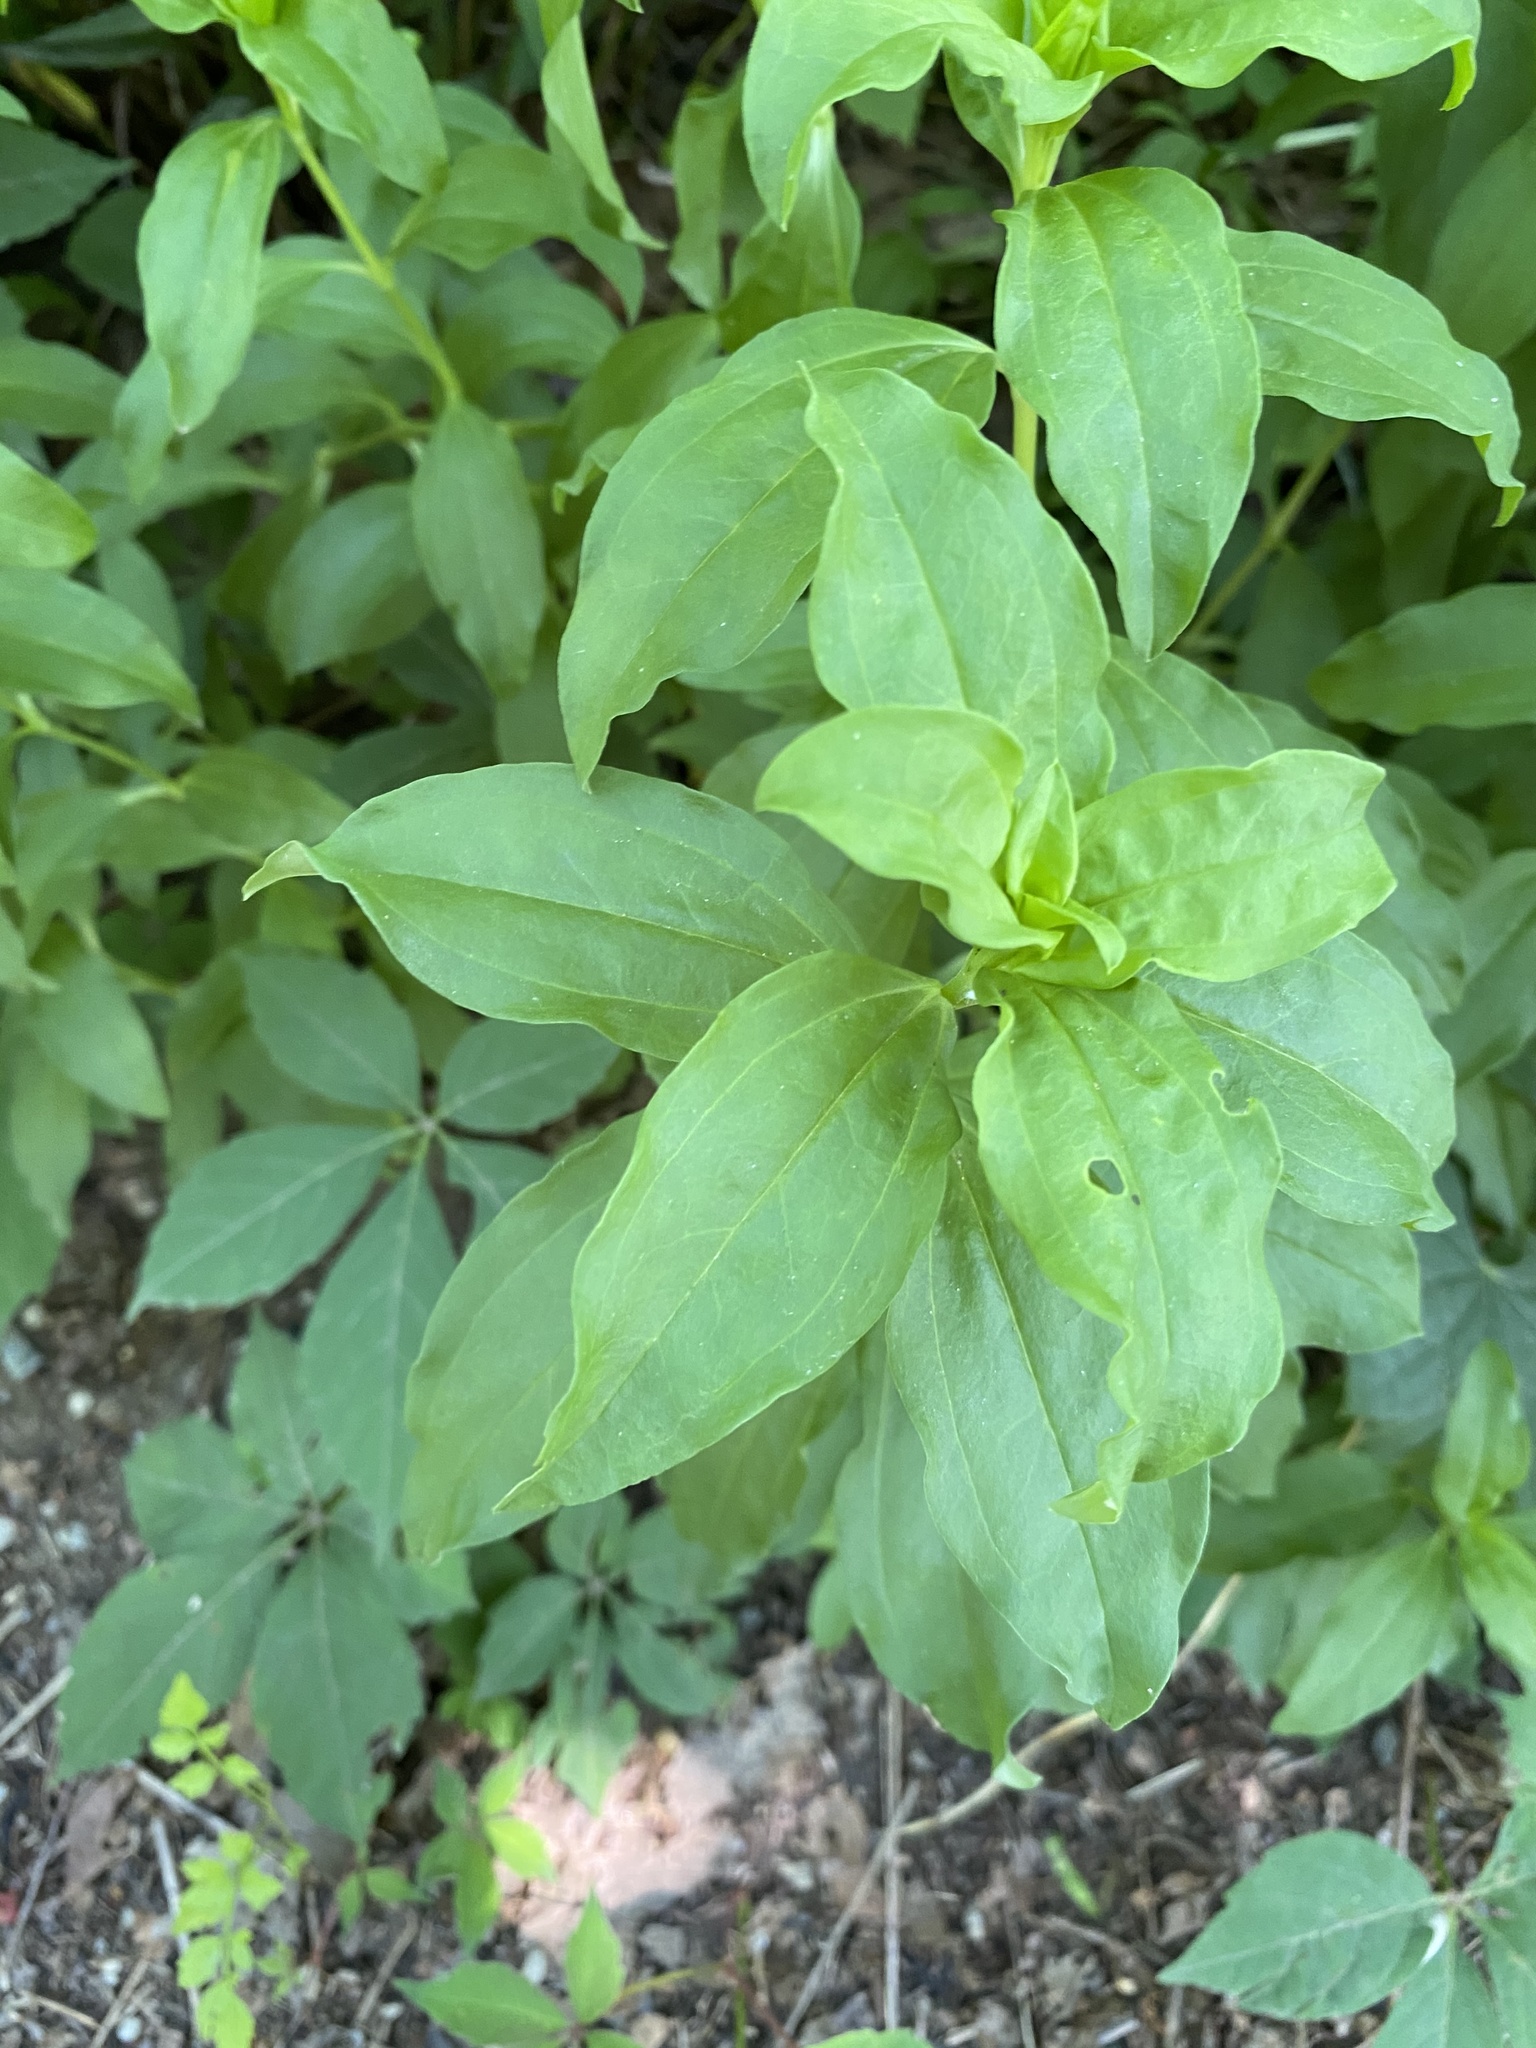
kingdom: Plantae
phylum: Tracheophyta
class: Magnoliopsida
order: Caryophyllales
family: Caryophyllaceae
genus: Saponaria
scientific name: Saponaria officinalis
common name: Soapwort
